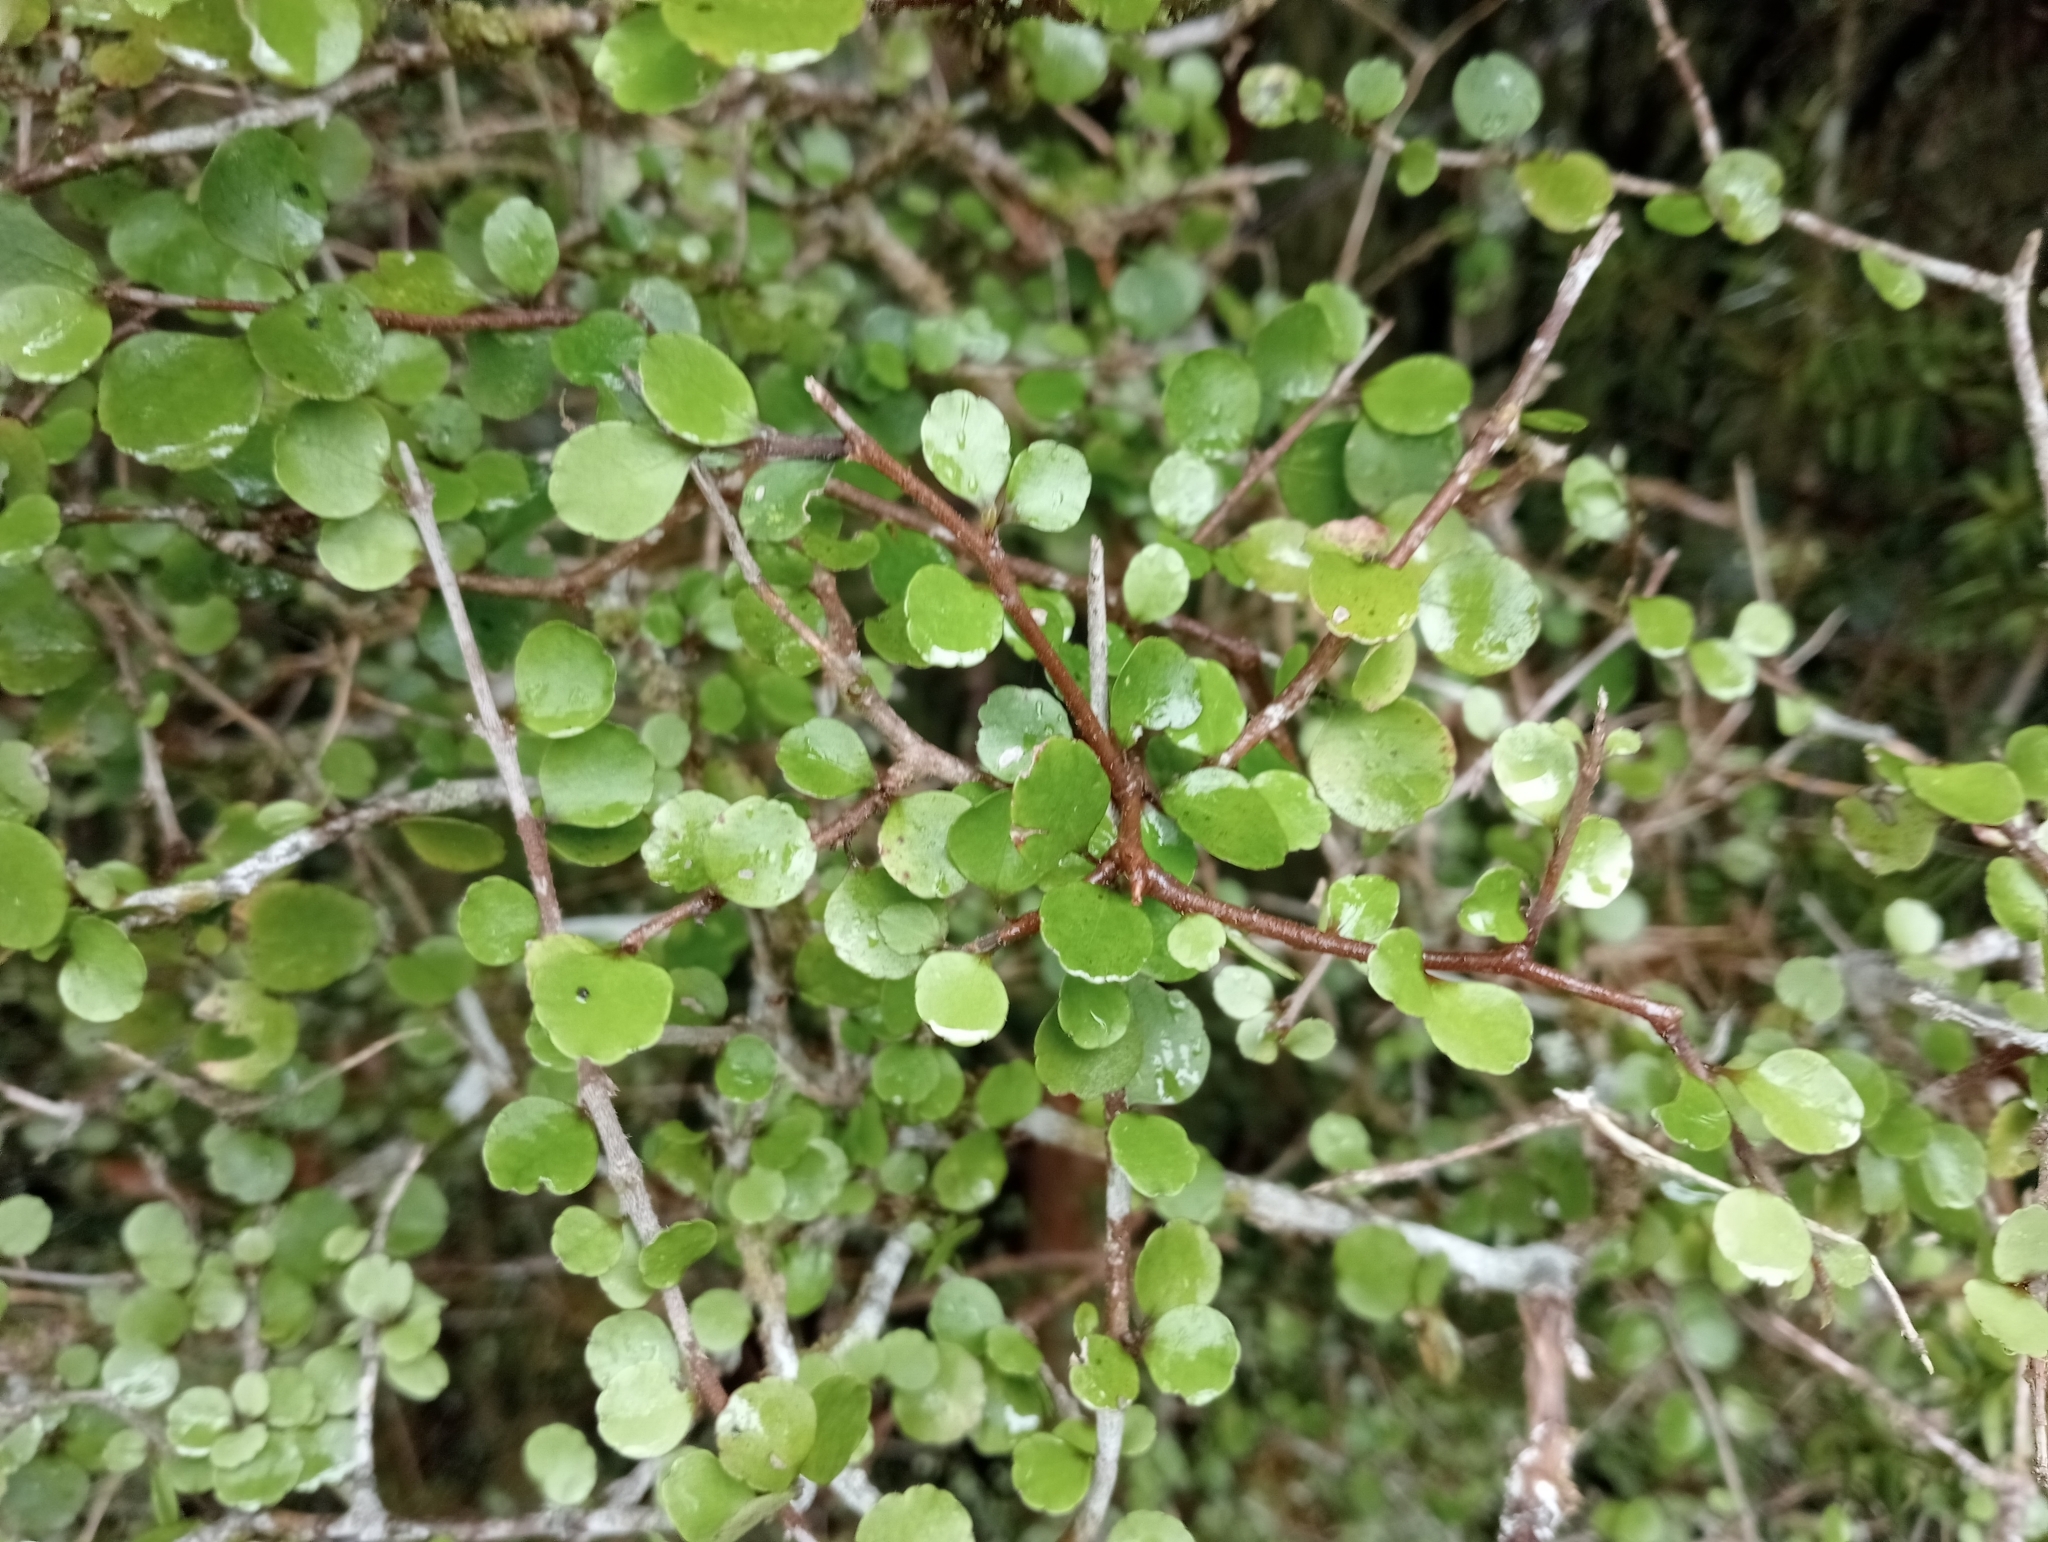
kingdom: Plantae
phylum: Tracheophyta
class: Magnoliopsida
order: Apiales
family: Araliaceae
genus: Raukaua
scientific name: Raukaua anomalus
